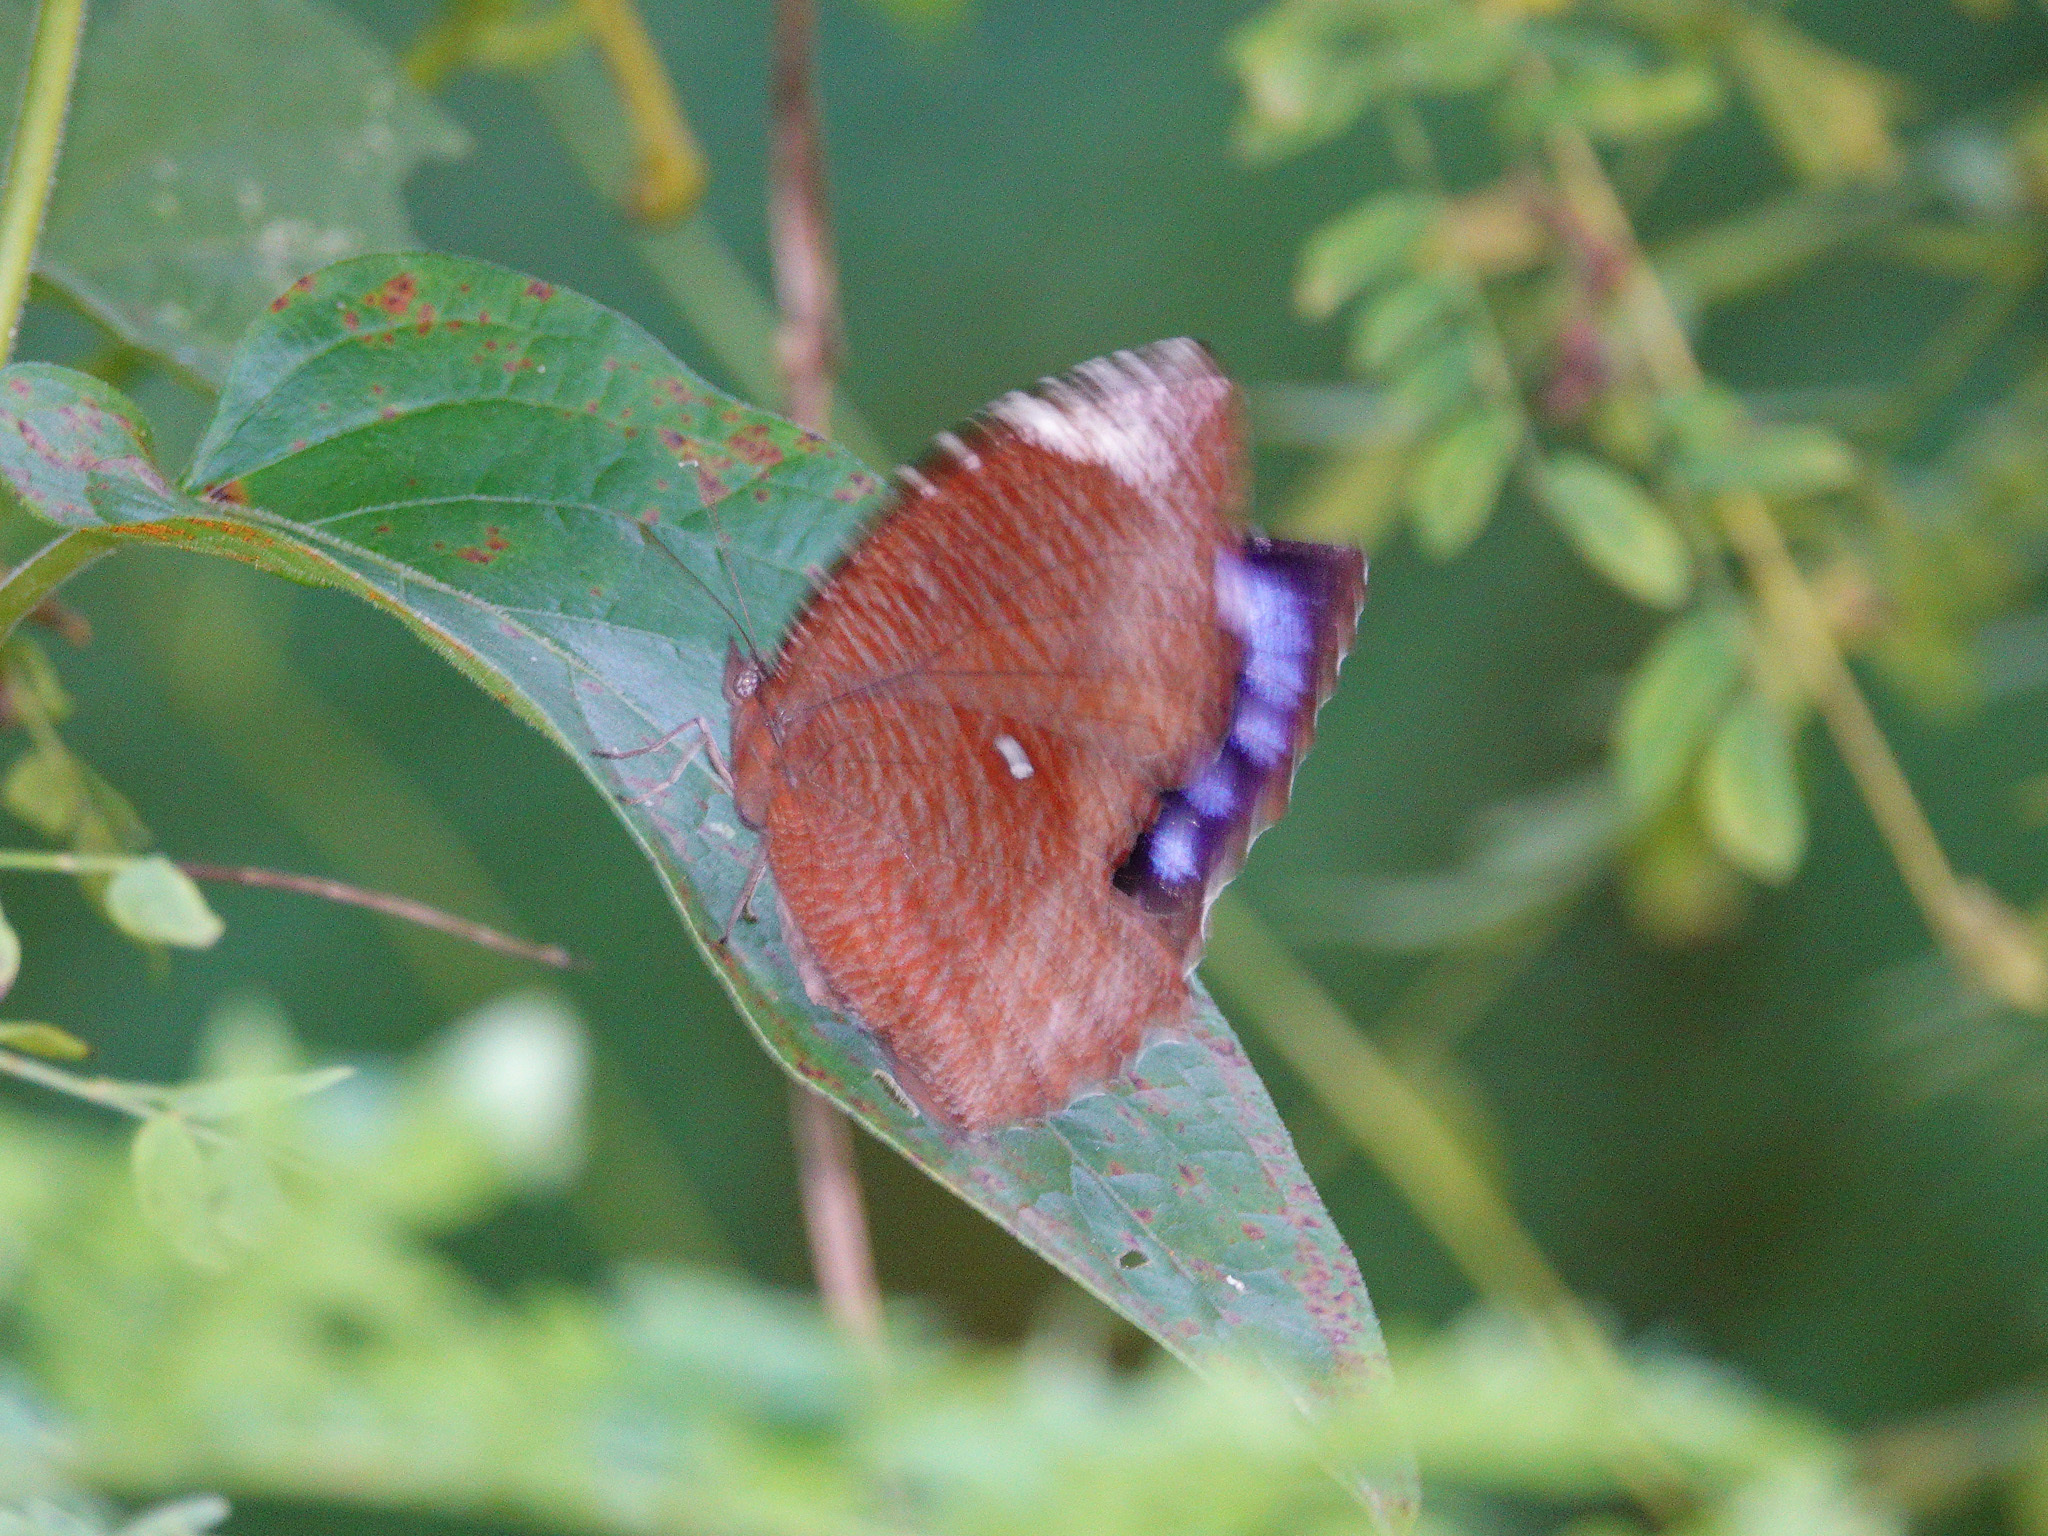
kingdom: Animalia
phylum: Arthropoda
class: Insecta
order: Lepidoptera
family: Nymphalidae
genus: Elymnias
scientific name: Elymnias hypermnestra
